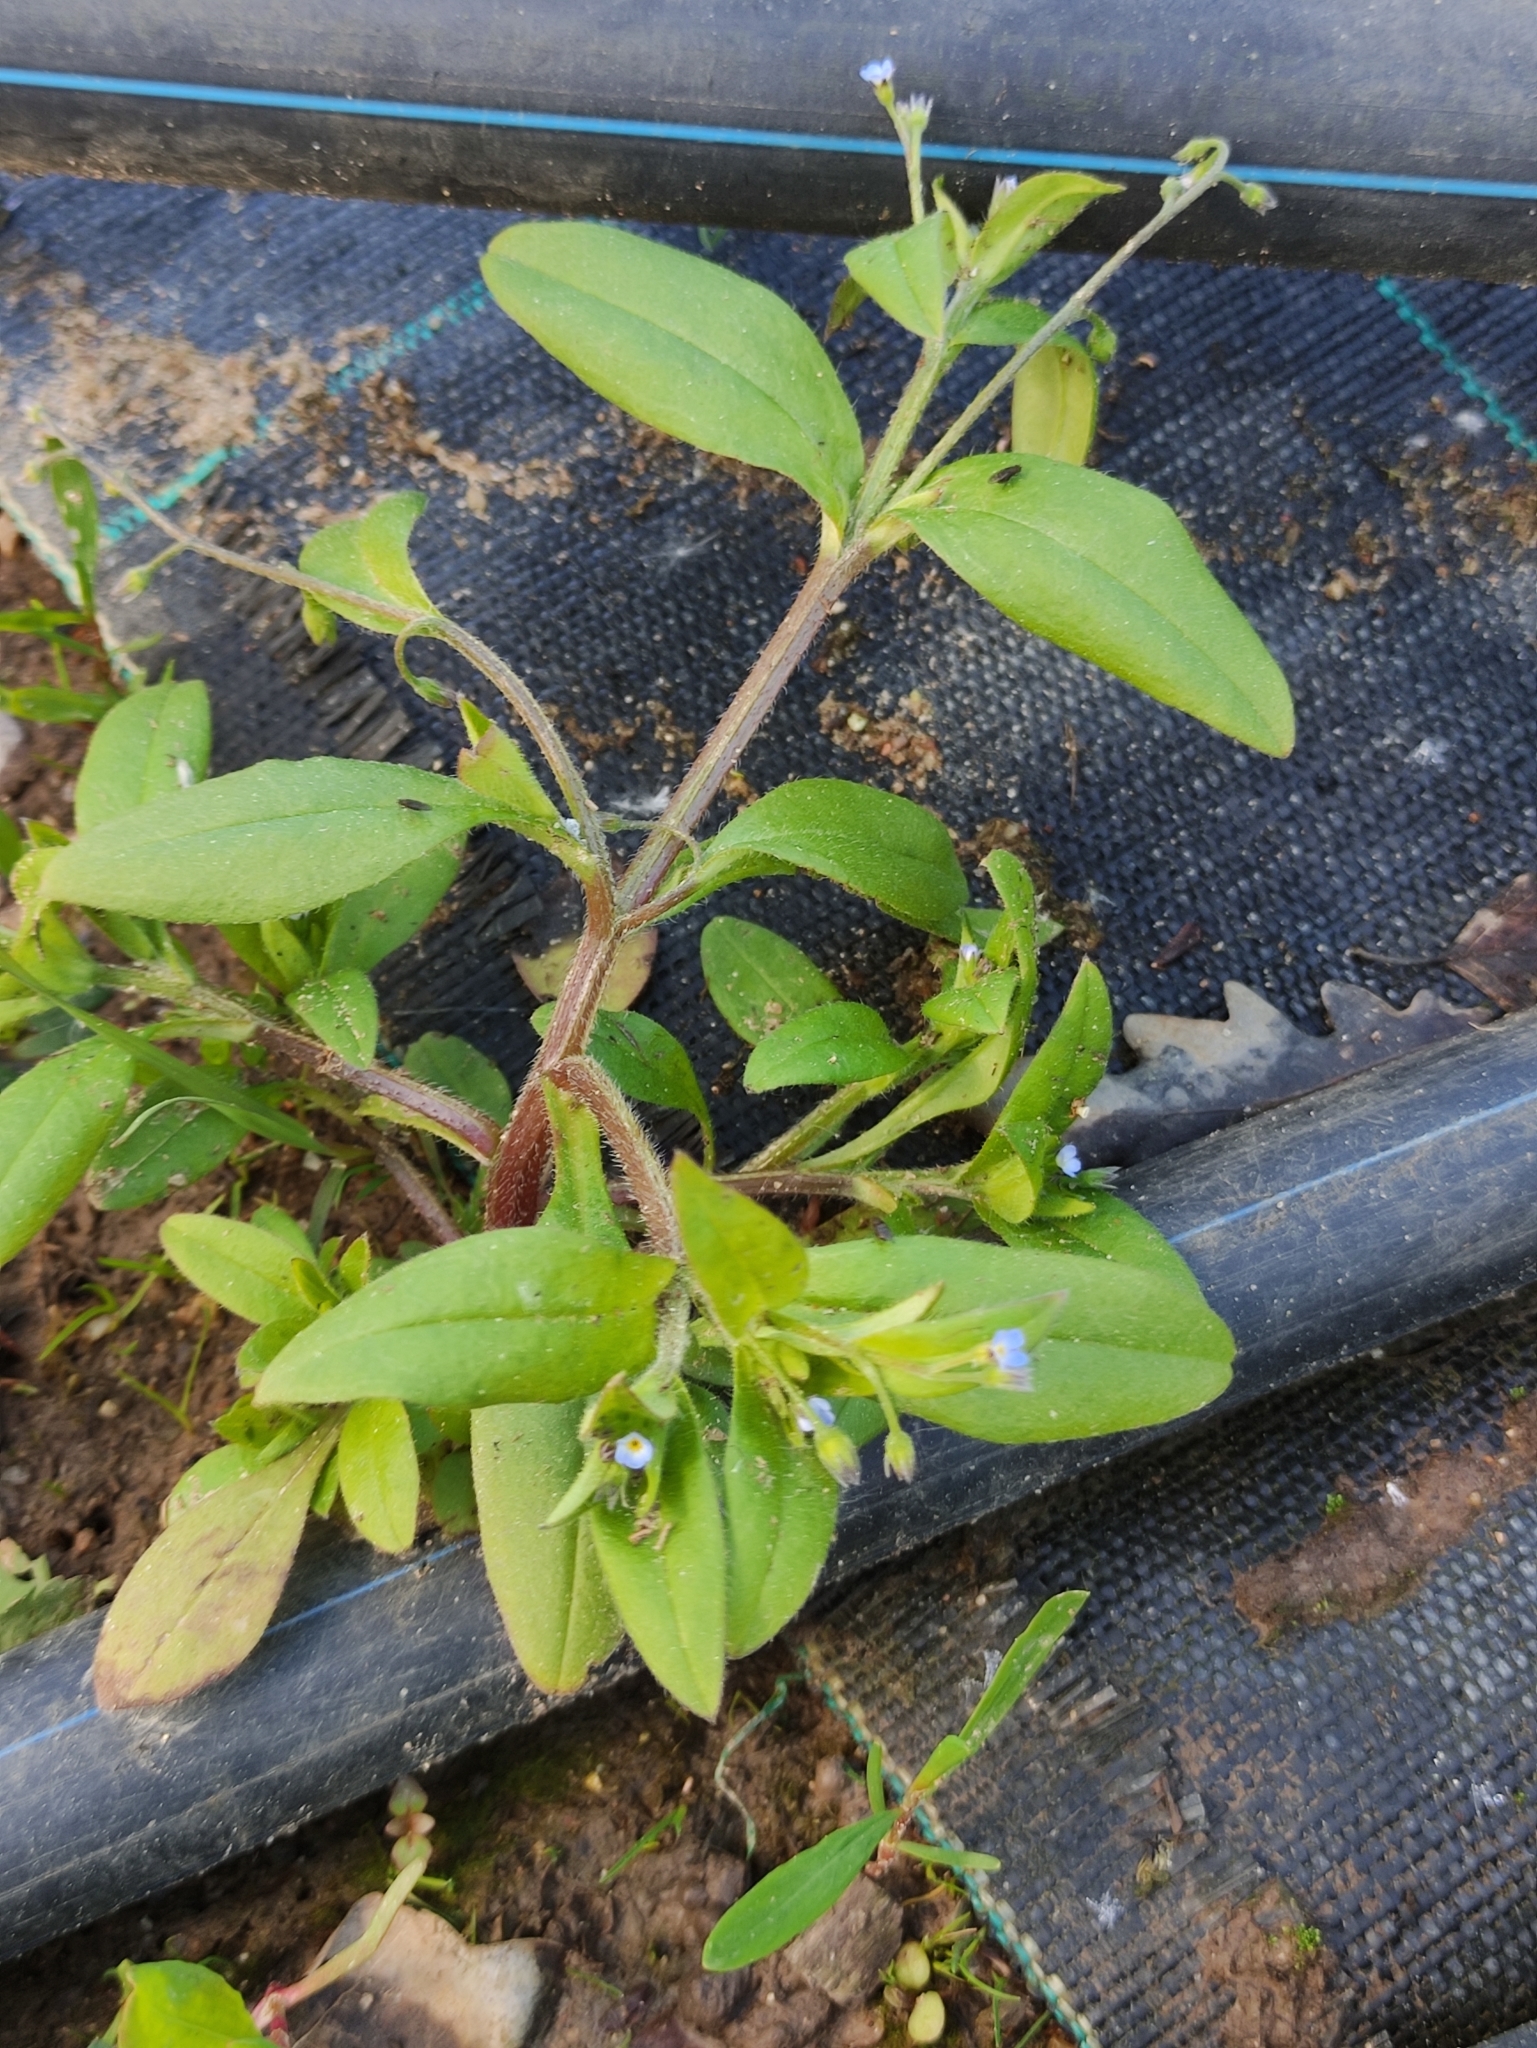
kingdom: Plantae
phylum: Tracheophyta
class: Magnoliopsida
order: Boraginales
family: Boraginaceae
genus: Myosotis
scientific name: Myosotis sparsiflora
